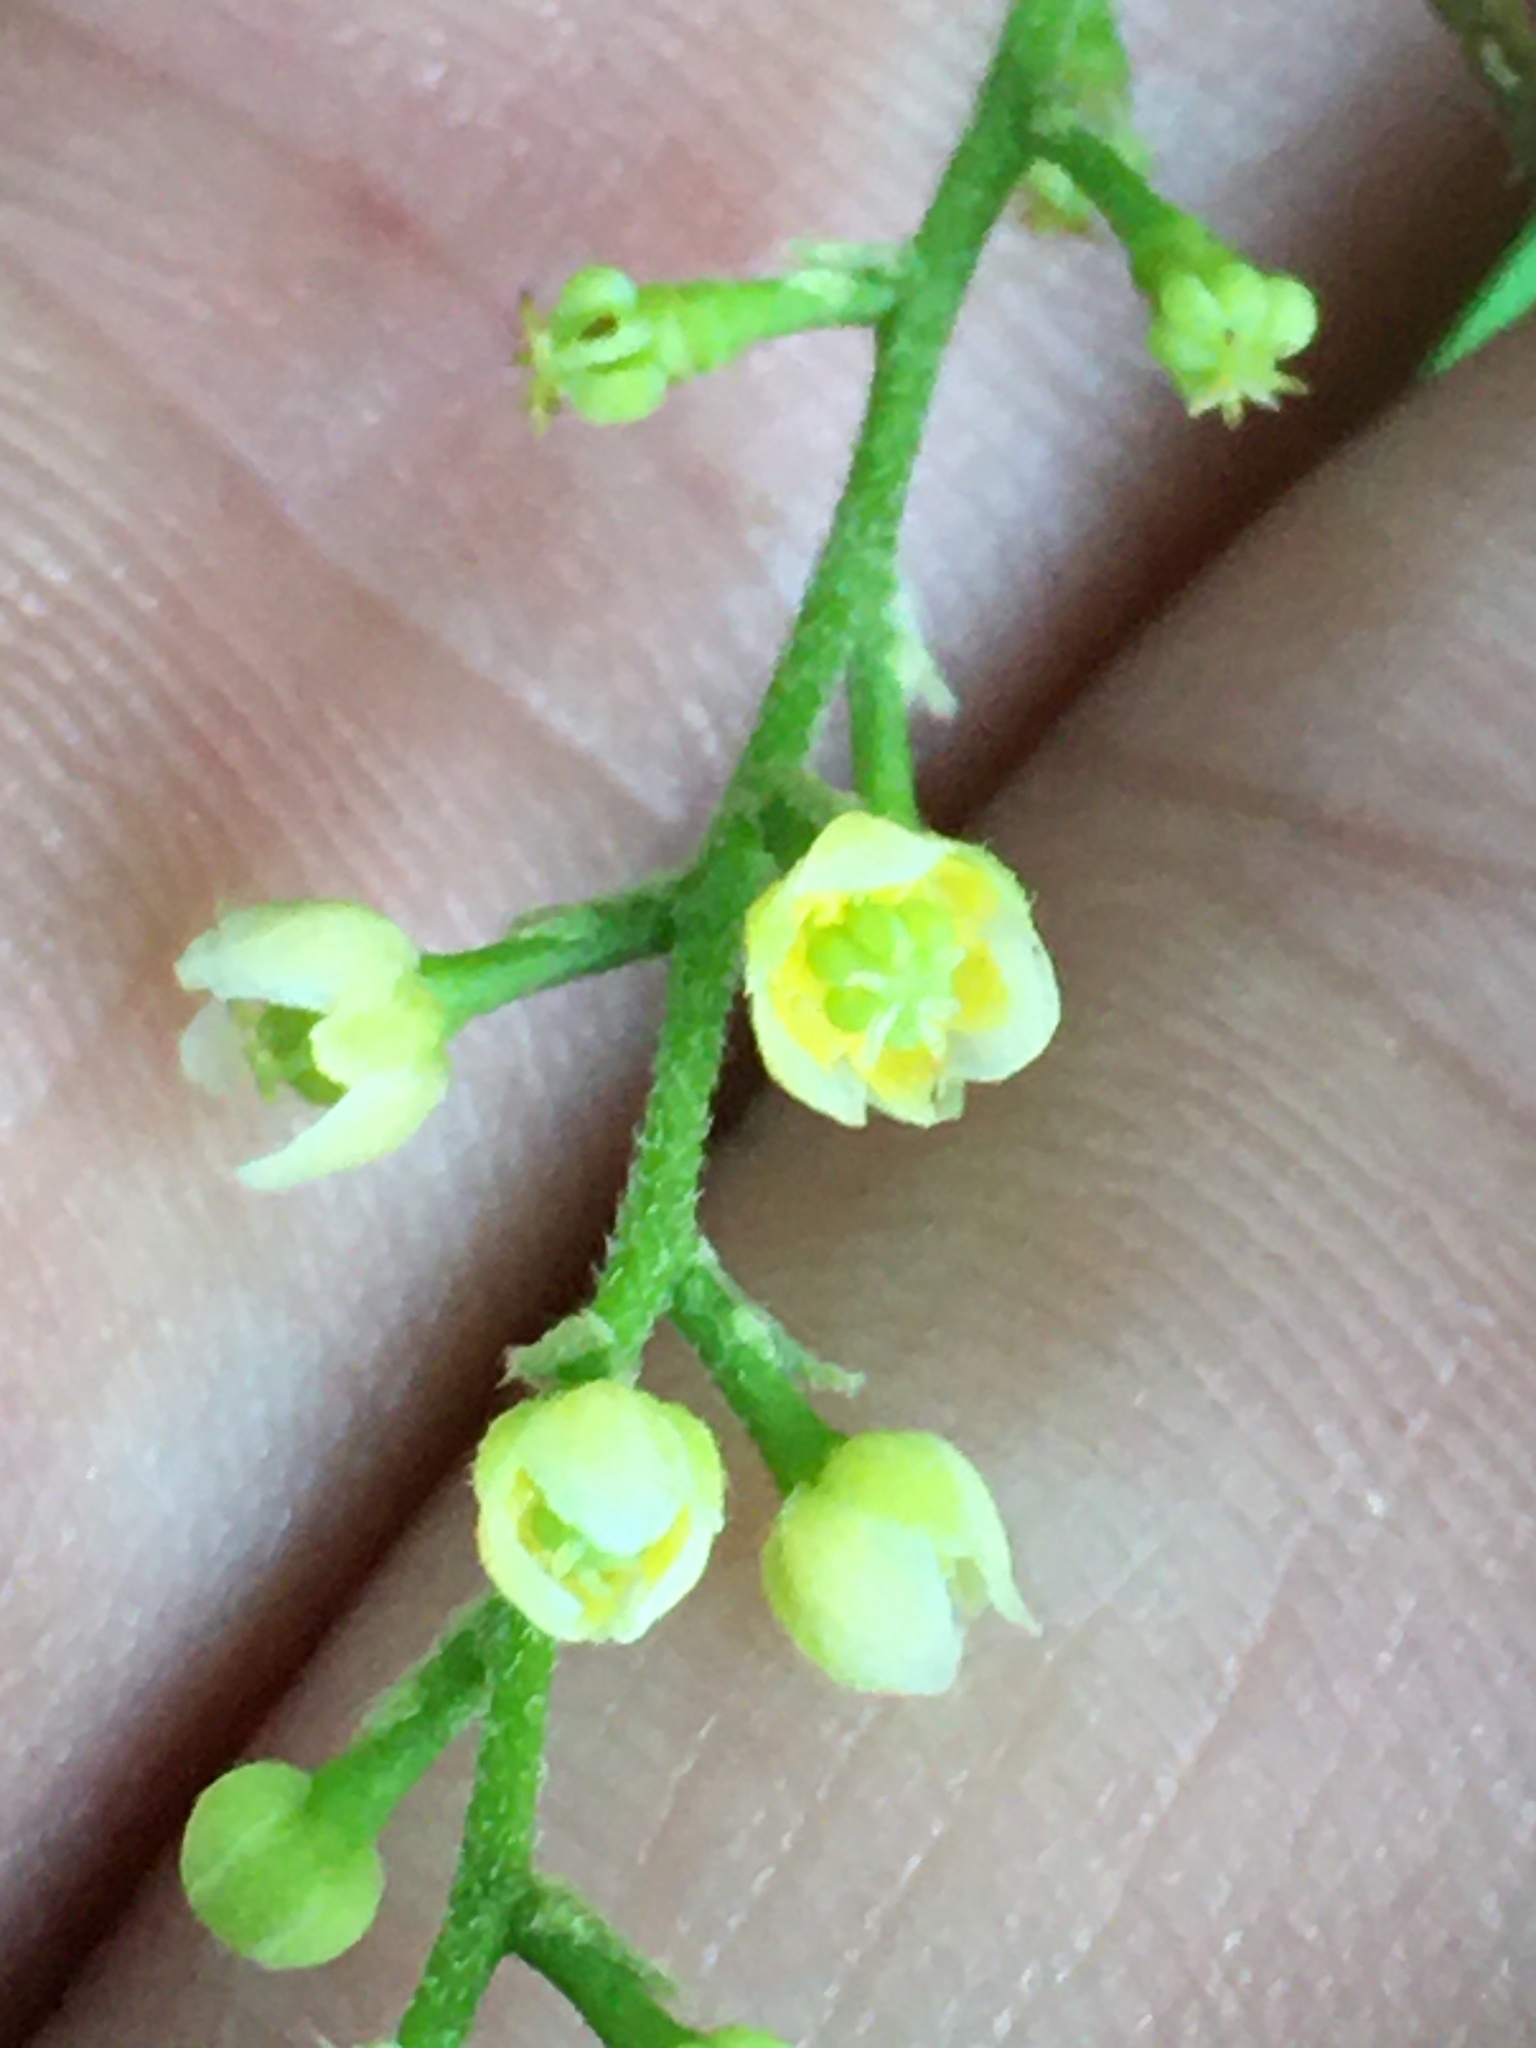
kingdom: Plantae
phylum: Tracheophyta
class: Magnoliopsida
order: Ranunculales
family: Menispermaceae
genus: Cocculus
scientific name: Cocculus carolinus
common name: Carolina moonseed
